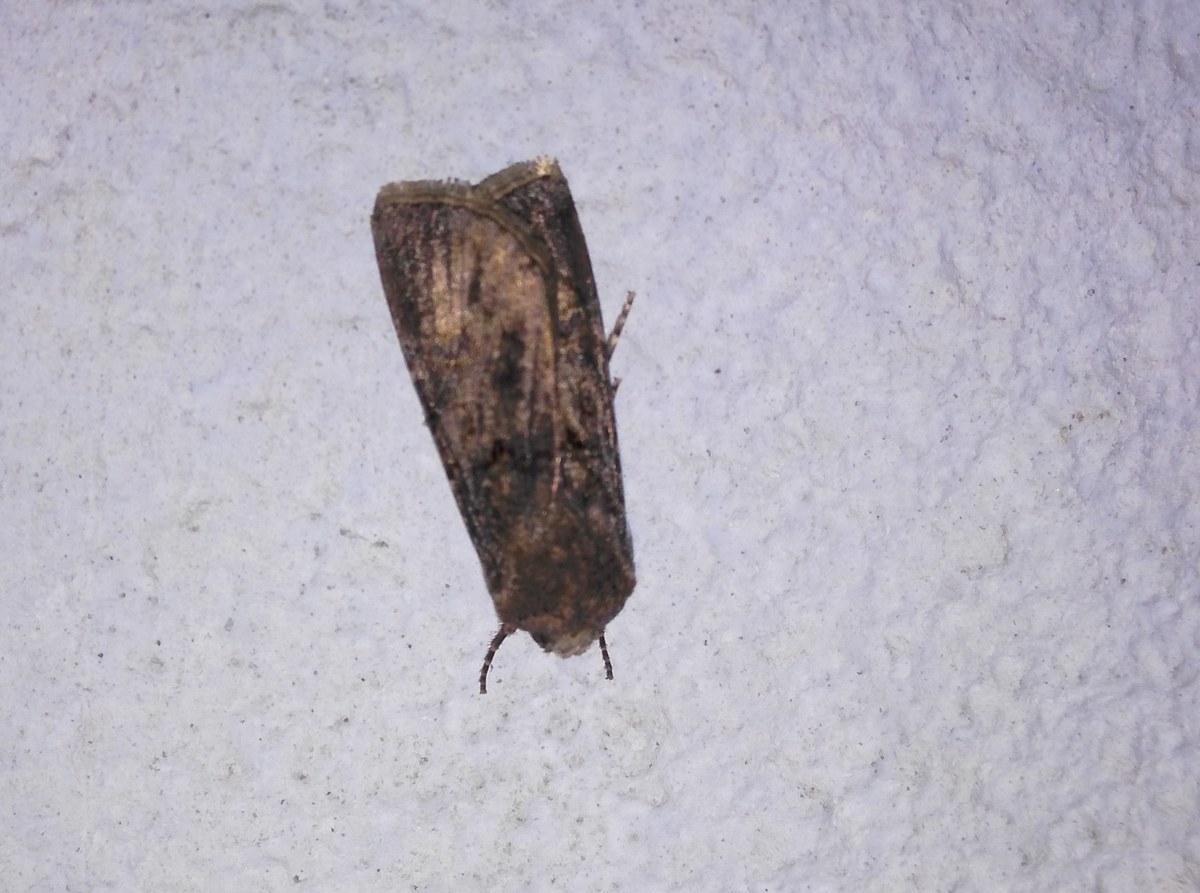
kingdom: Animalia
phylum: Arthropoda
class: Insecta
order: Lepidoptera
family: Noctuidae
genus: Agrotis
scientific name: Agrotis segetum
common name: Turnip moth
